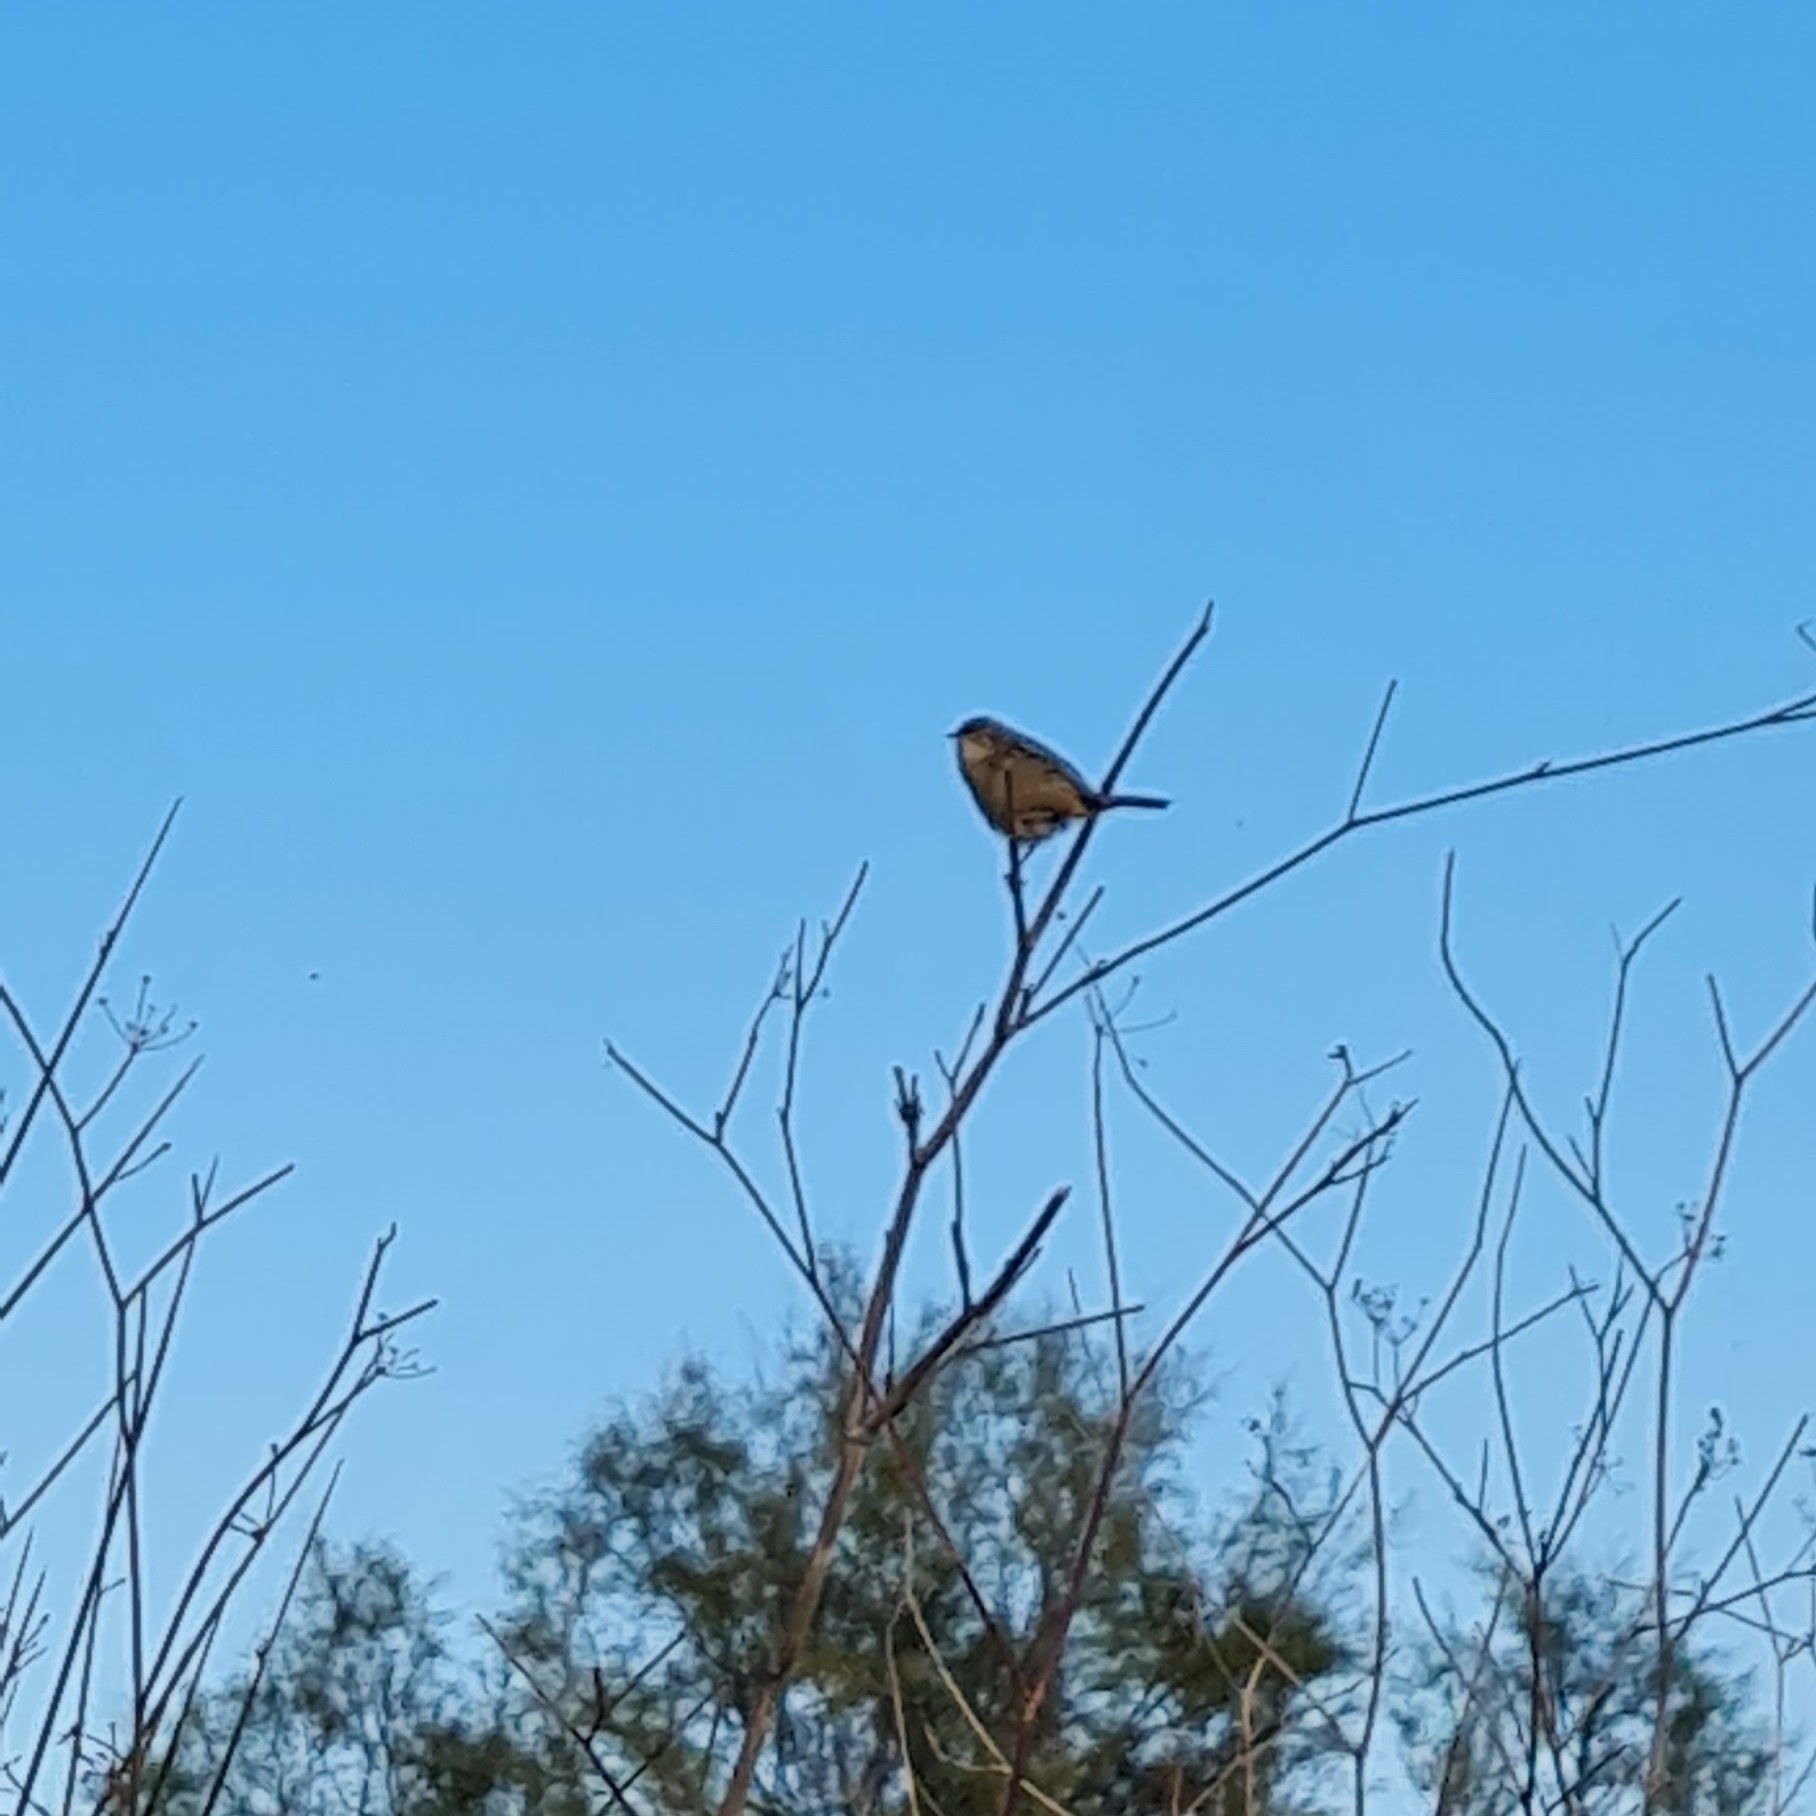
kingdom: Animalia
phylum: Chordata
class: Aves
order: Passeriformes
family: Cisticolidae
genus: Cisticola
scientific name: Cisticola juncidis
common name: Zitting cisticola
